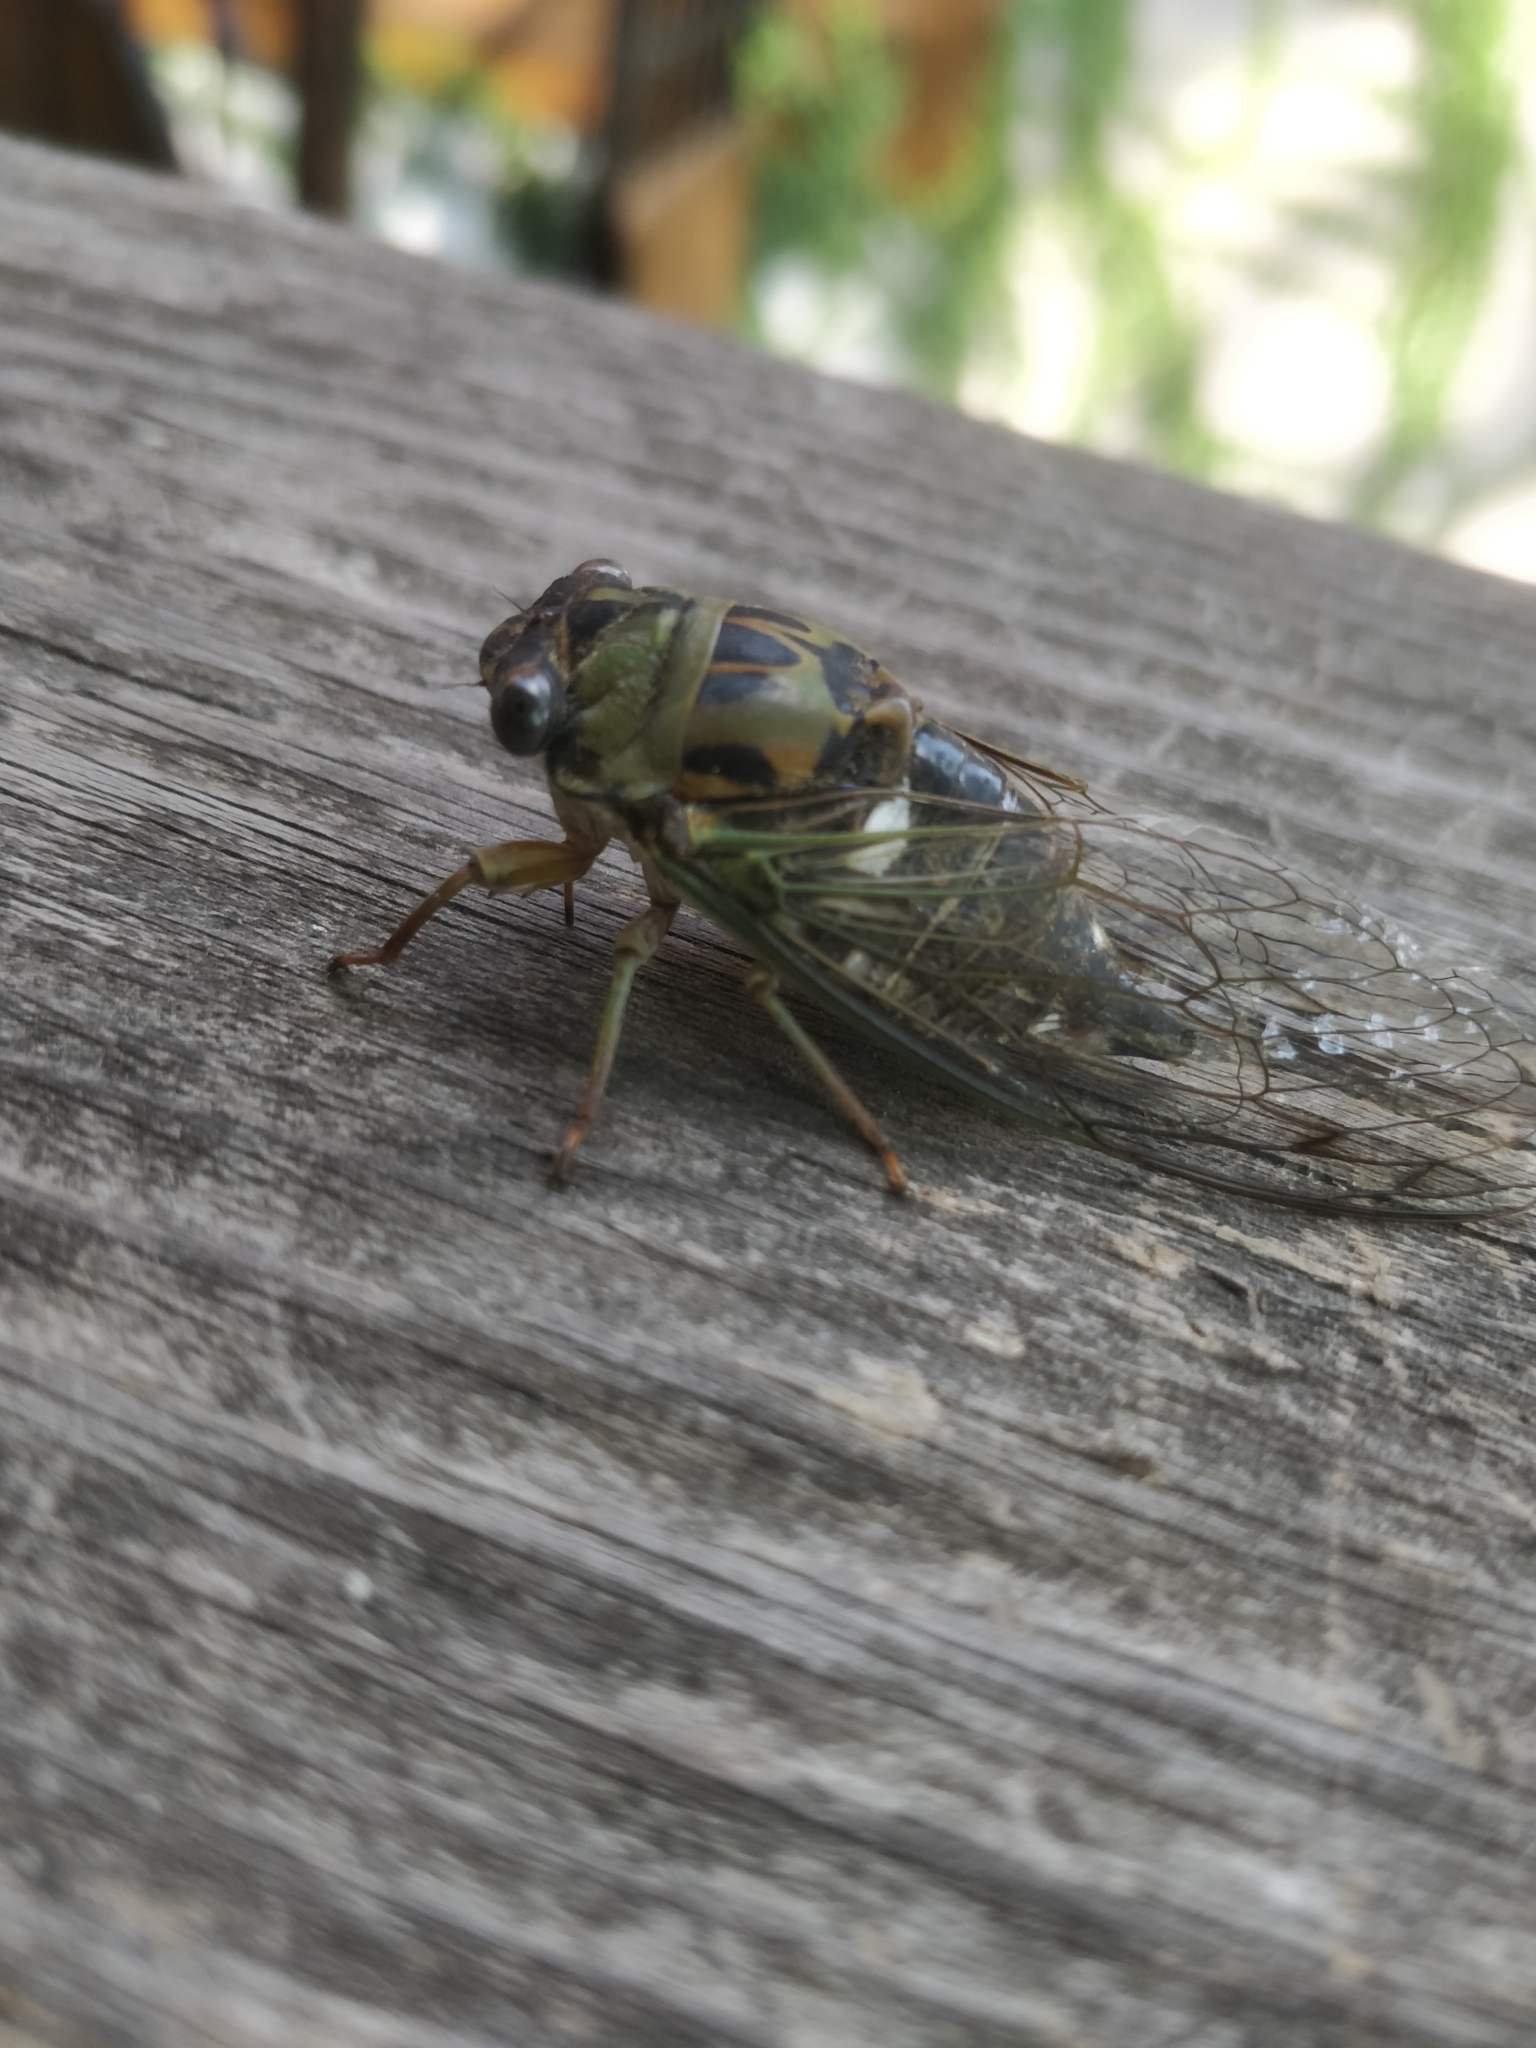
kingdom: Animalia
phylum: Arthropoda
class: Insecta
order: Hemiptera
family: Cicadidae
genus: Neotibicen
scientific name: Neotibicen pruinosus
